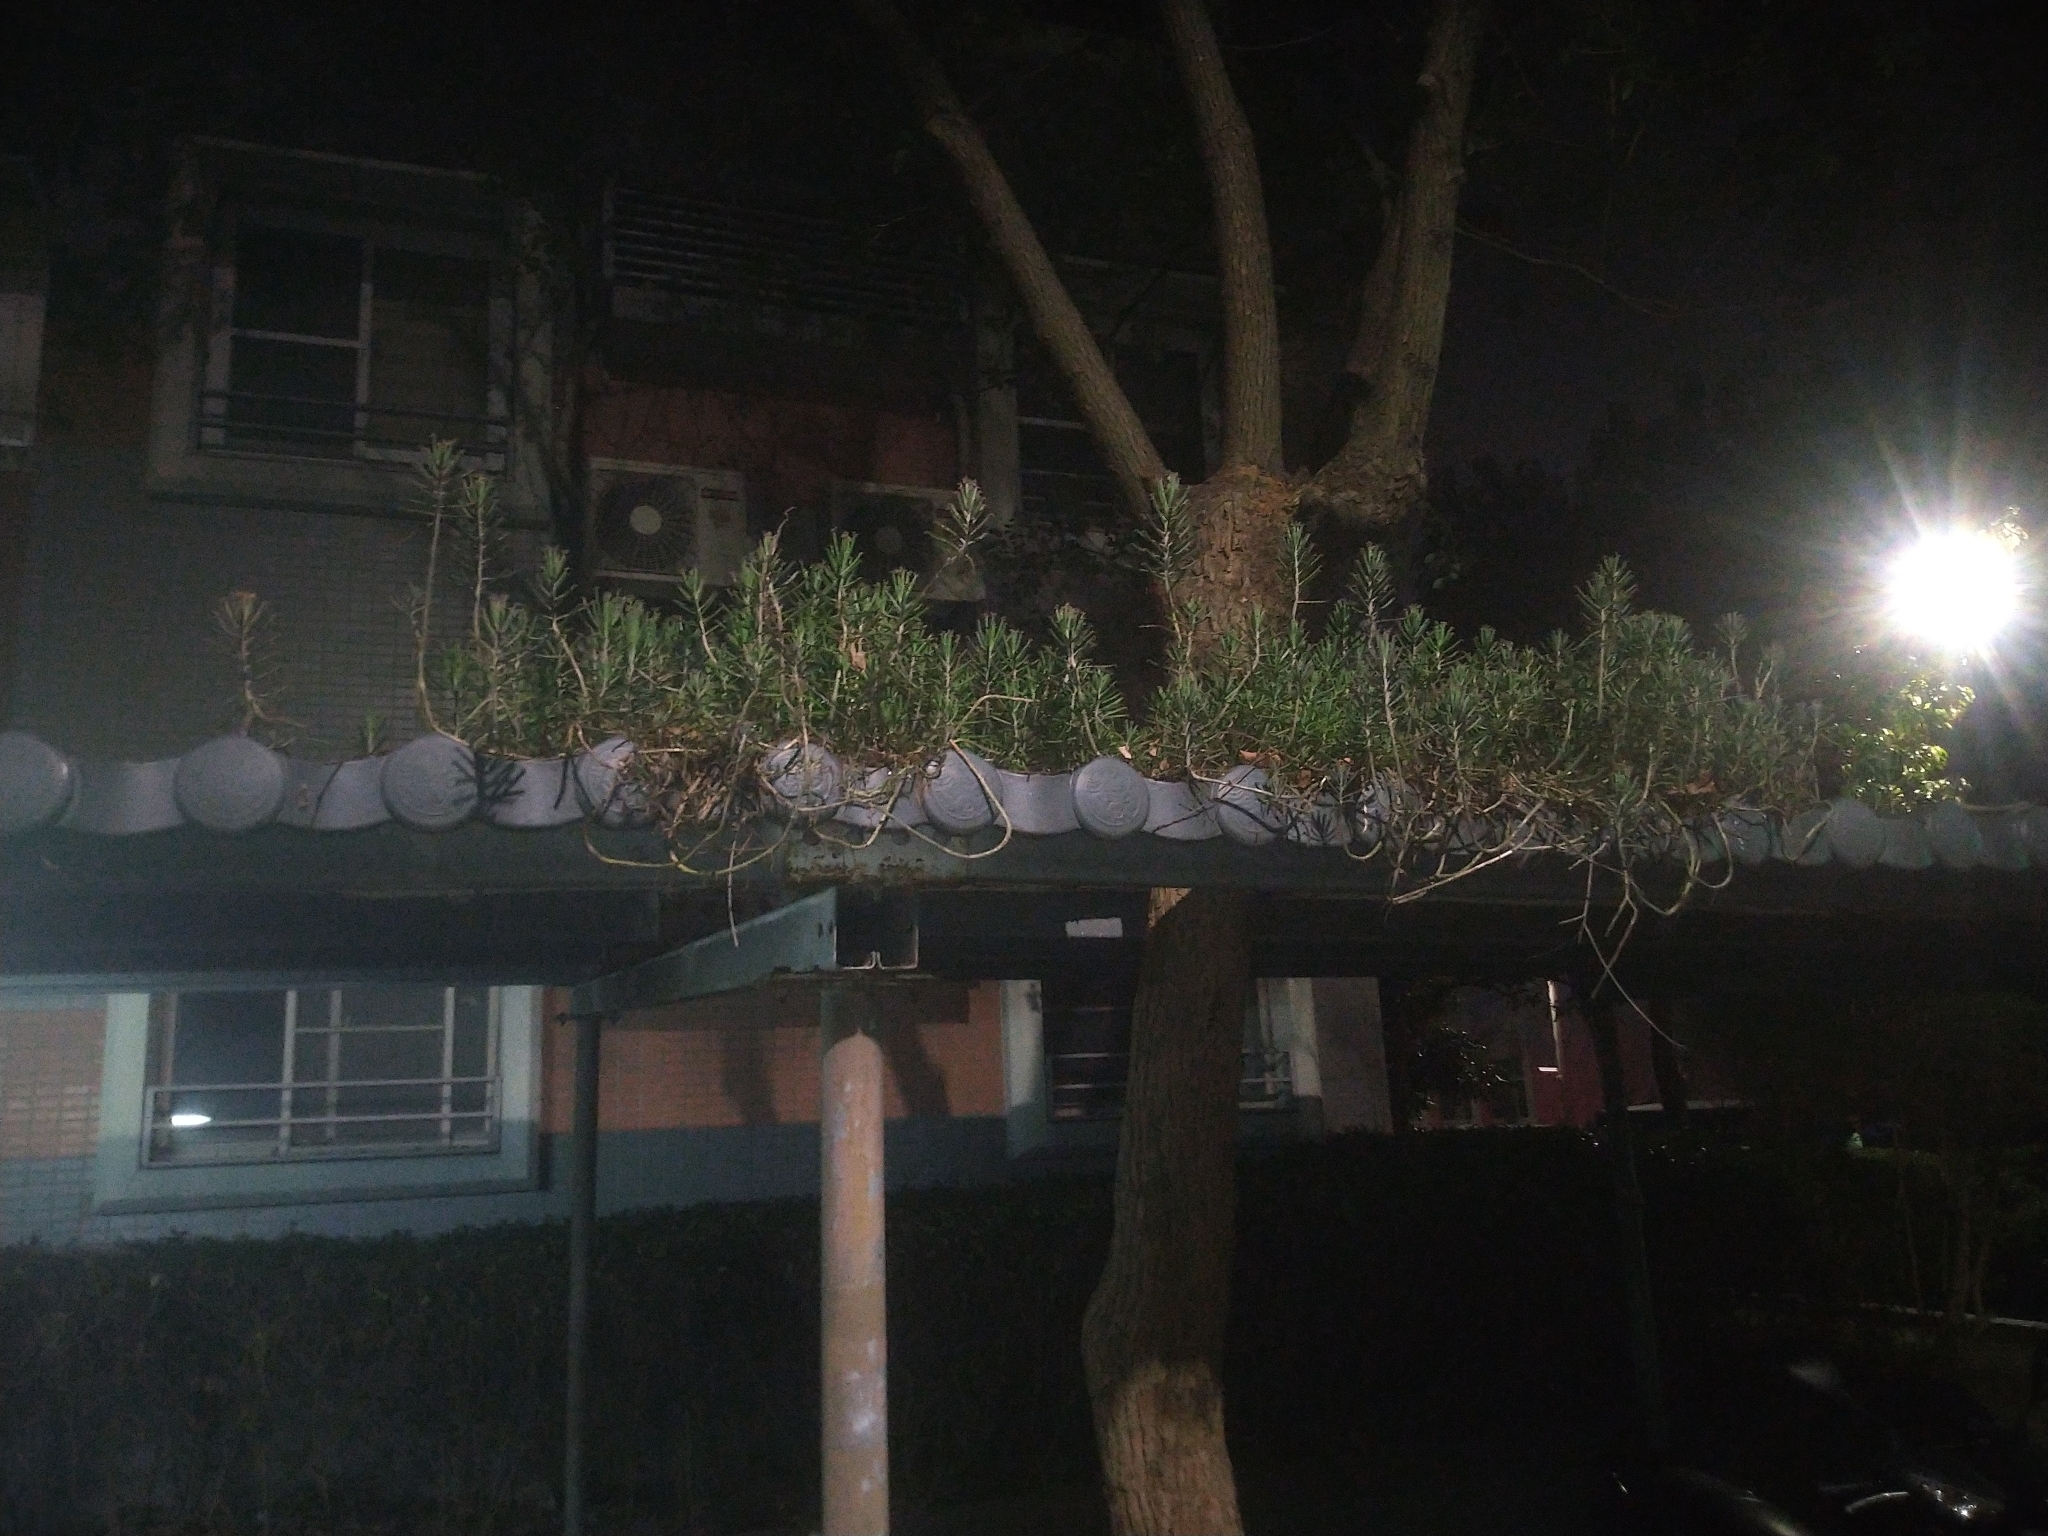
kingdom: Plantae
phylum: Tracheophyta
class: Magnoliopsida
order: Saxifragales
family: Crassulaceae
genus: Kalanchoe
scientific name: Kalanchoe delagoensis
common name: Chandelier plant
